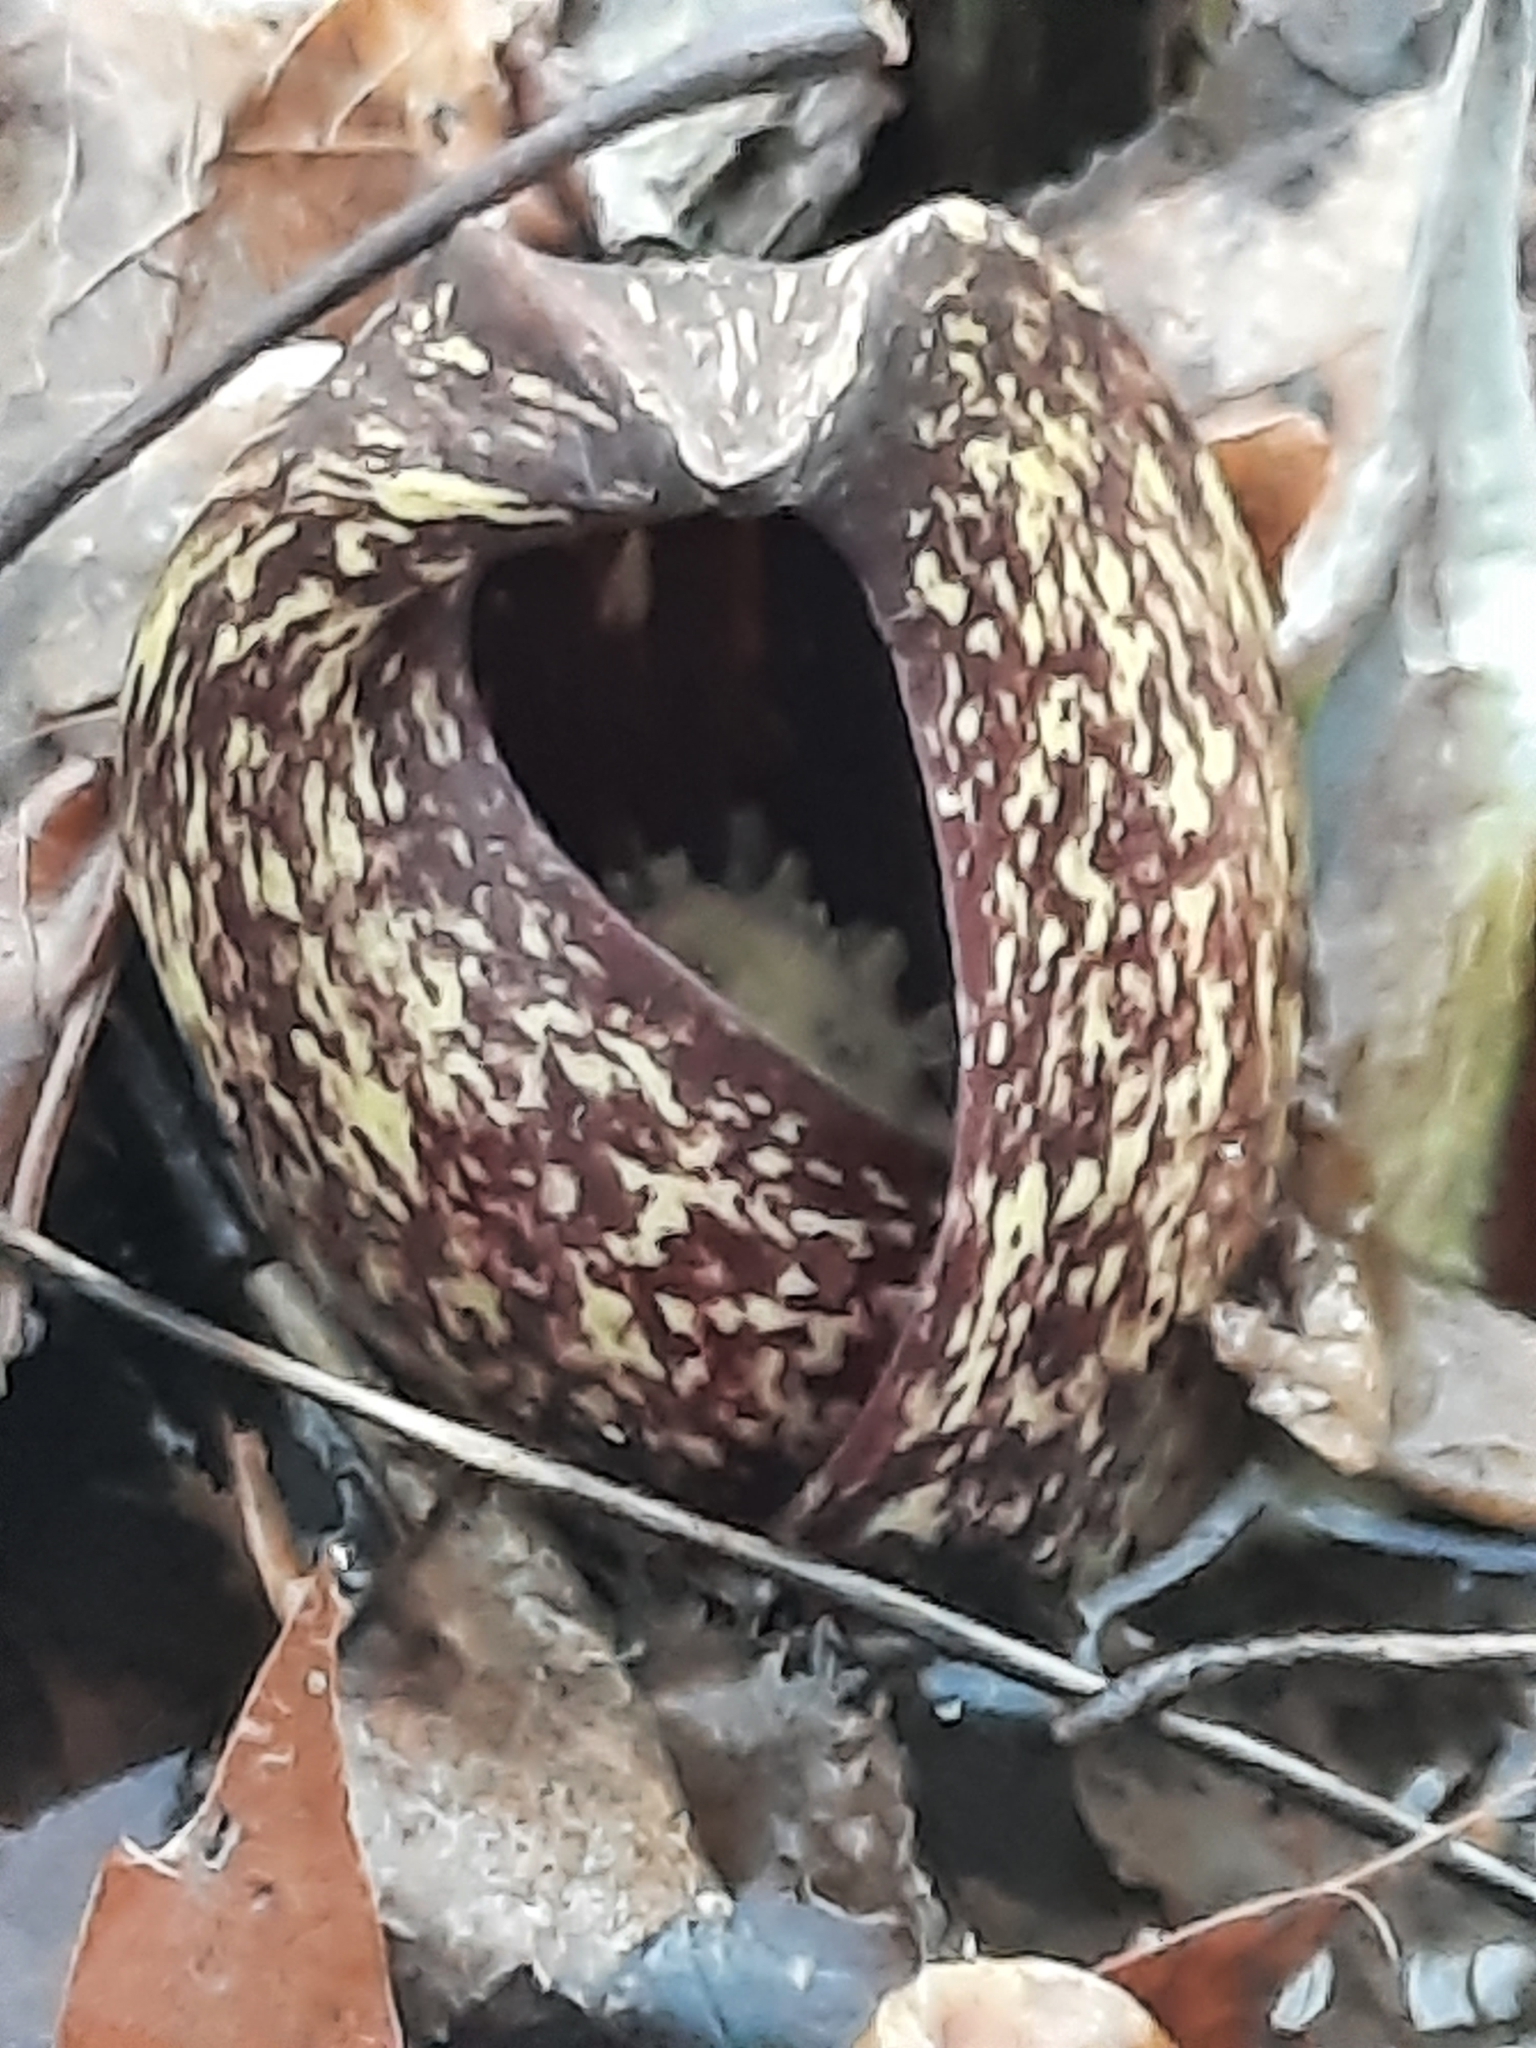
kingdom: Plantae
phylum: Tracheophyta
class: Liliopsida
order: Alismatales
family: Araceae
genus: Symplocarpus
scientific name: Symplocarpus foetidus
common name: Eastern skunk cabbage
